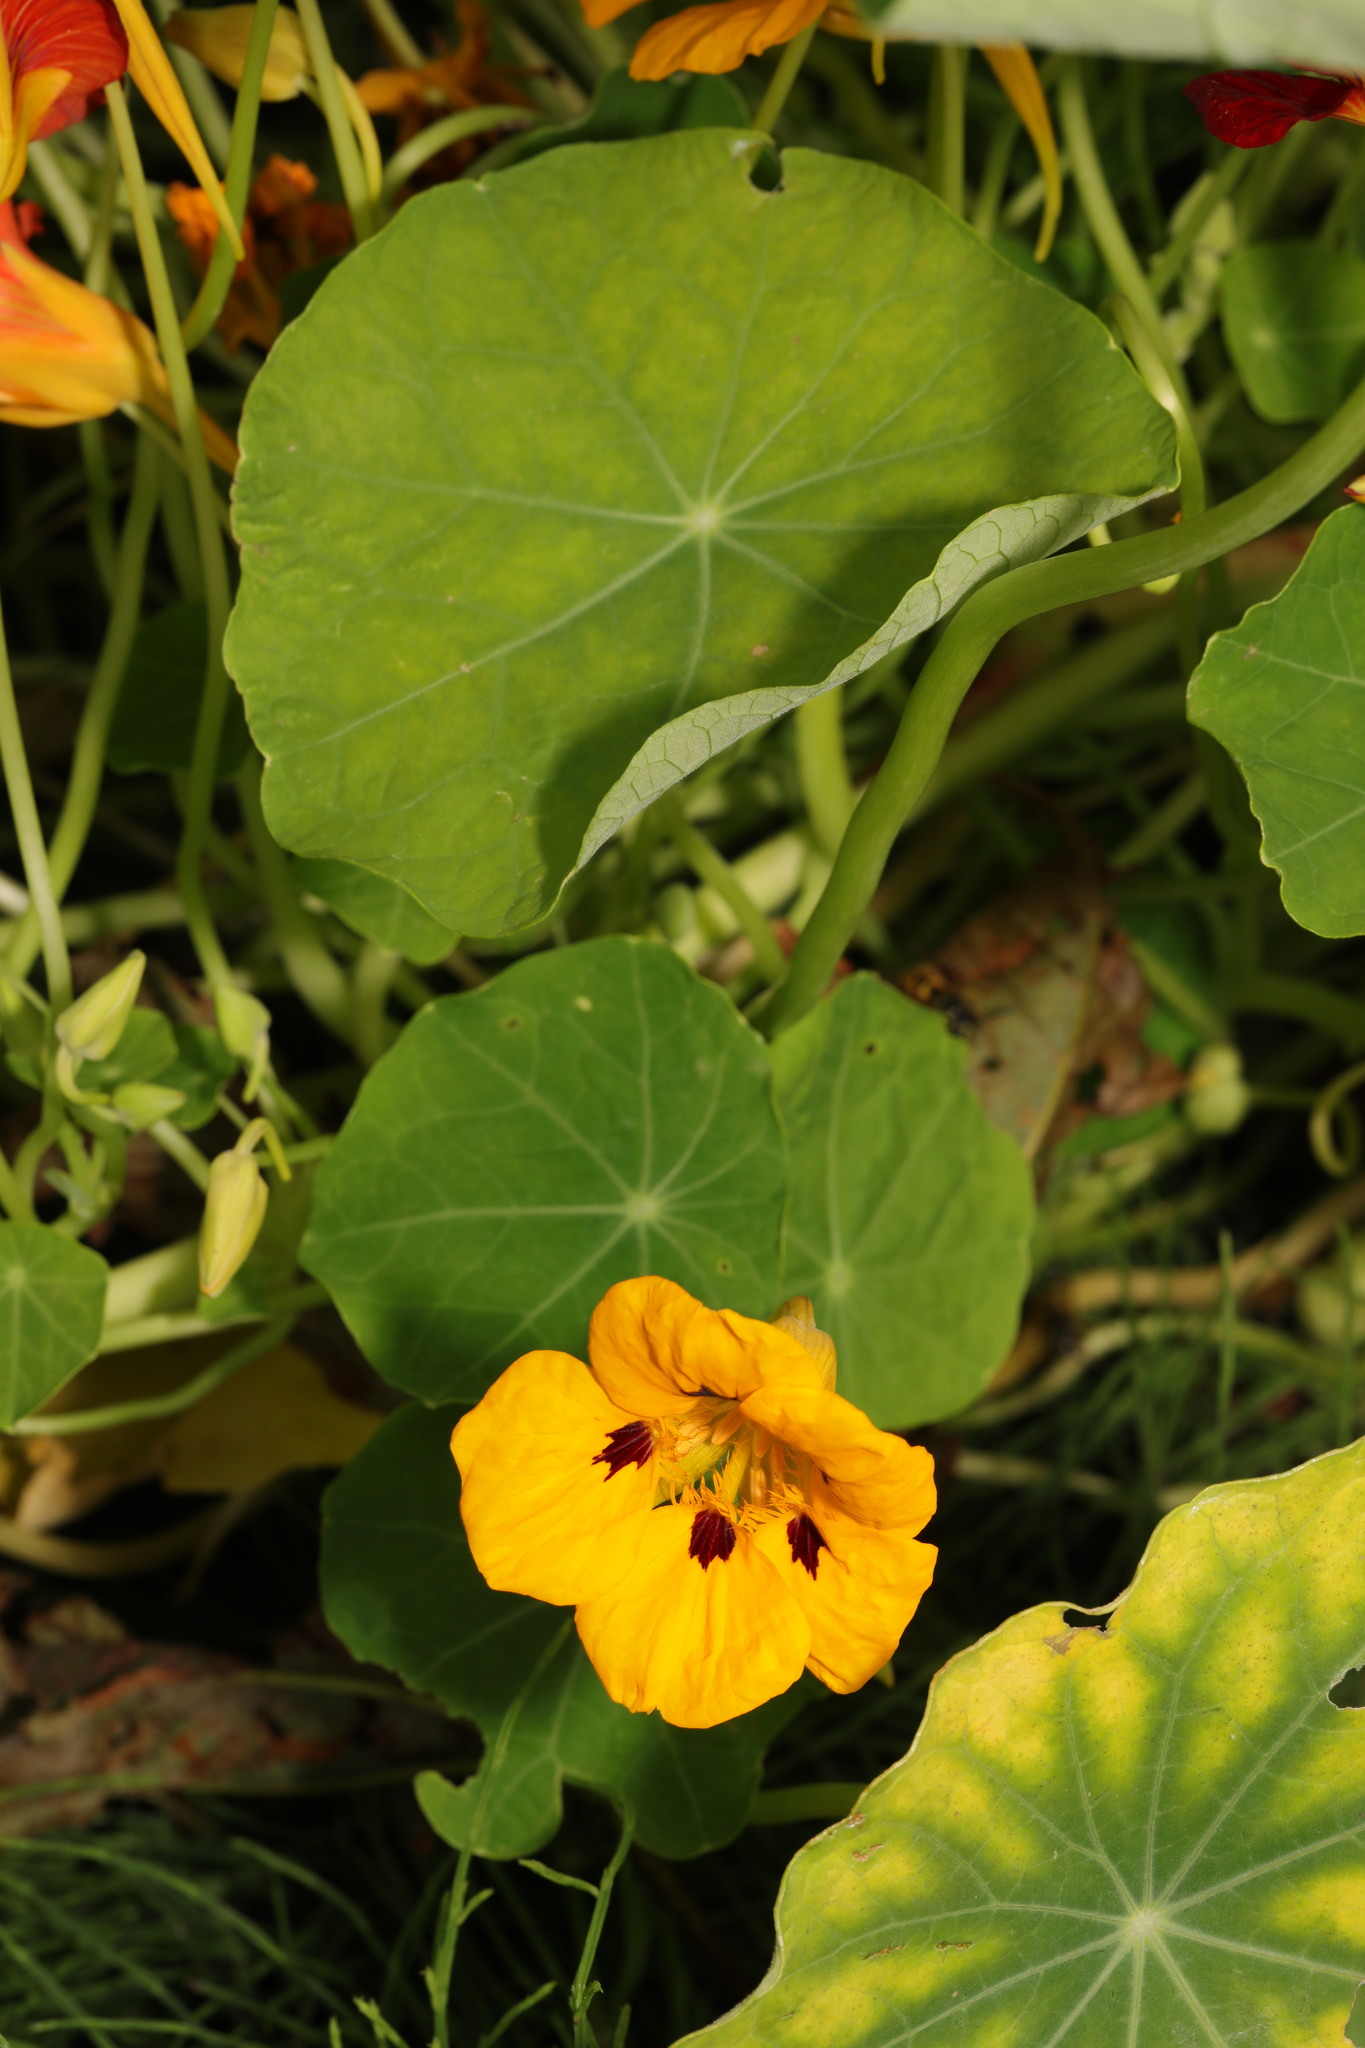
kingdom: Plantae
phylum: Tracheophyta
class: Magnoliopsida
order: Brassicales
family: Tropaeolaceae
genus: Tropaeolum
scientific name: Tropaeolum majus
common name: Nasturtium
